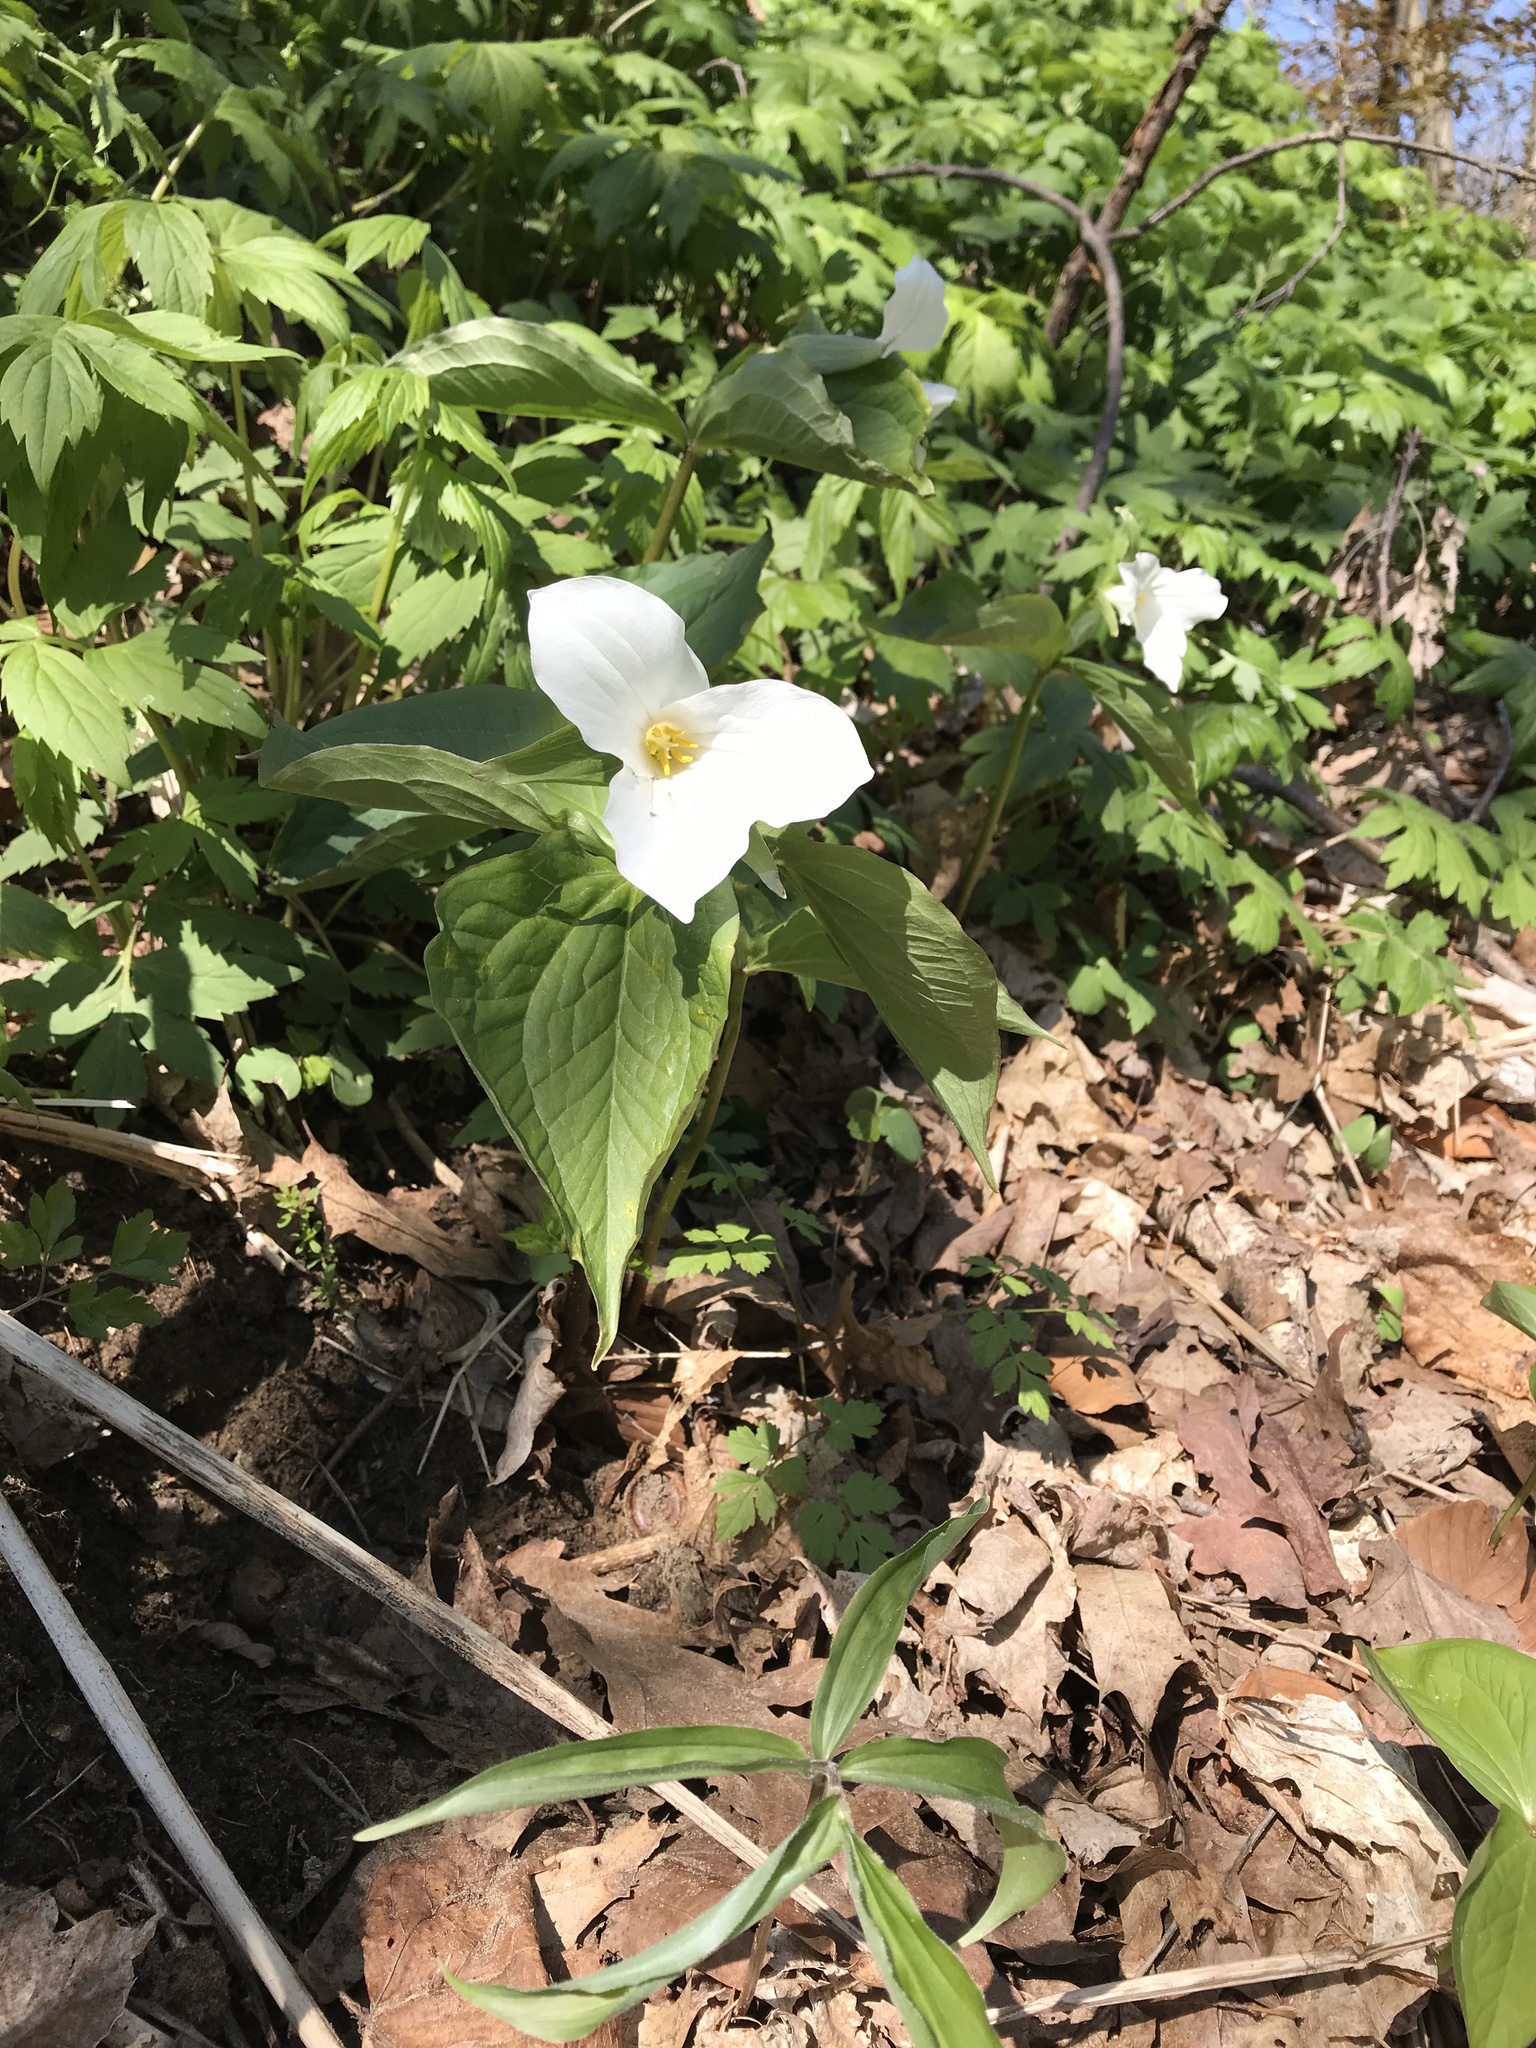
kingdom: Plantae
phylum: Tracheophyta
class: Liliopsida
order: Liliales
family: Melanthiaceae
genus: Trillium
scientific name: Trillium grandiflorum
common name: Great white trillium
